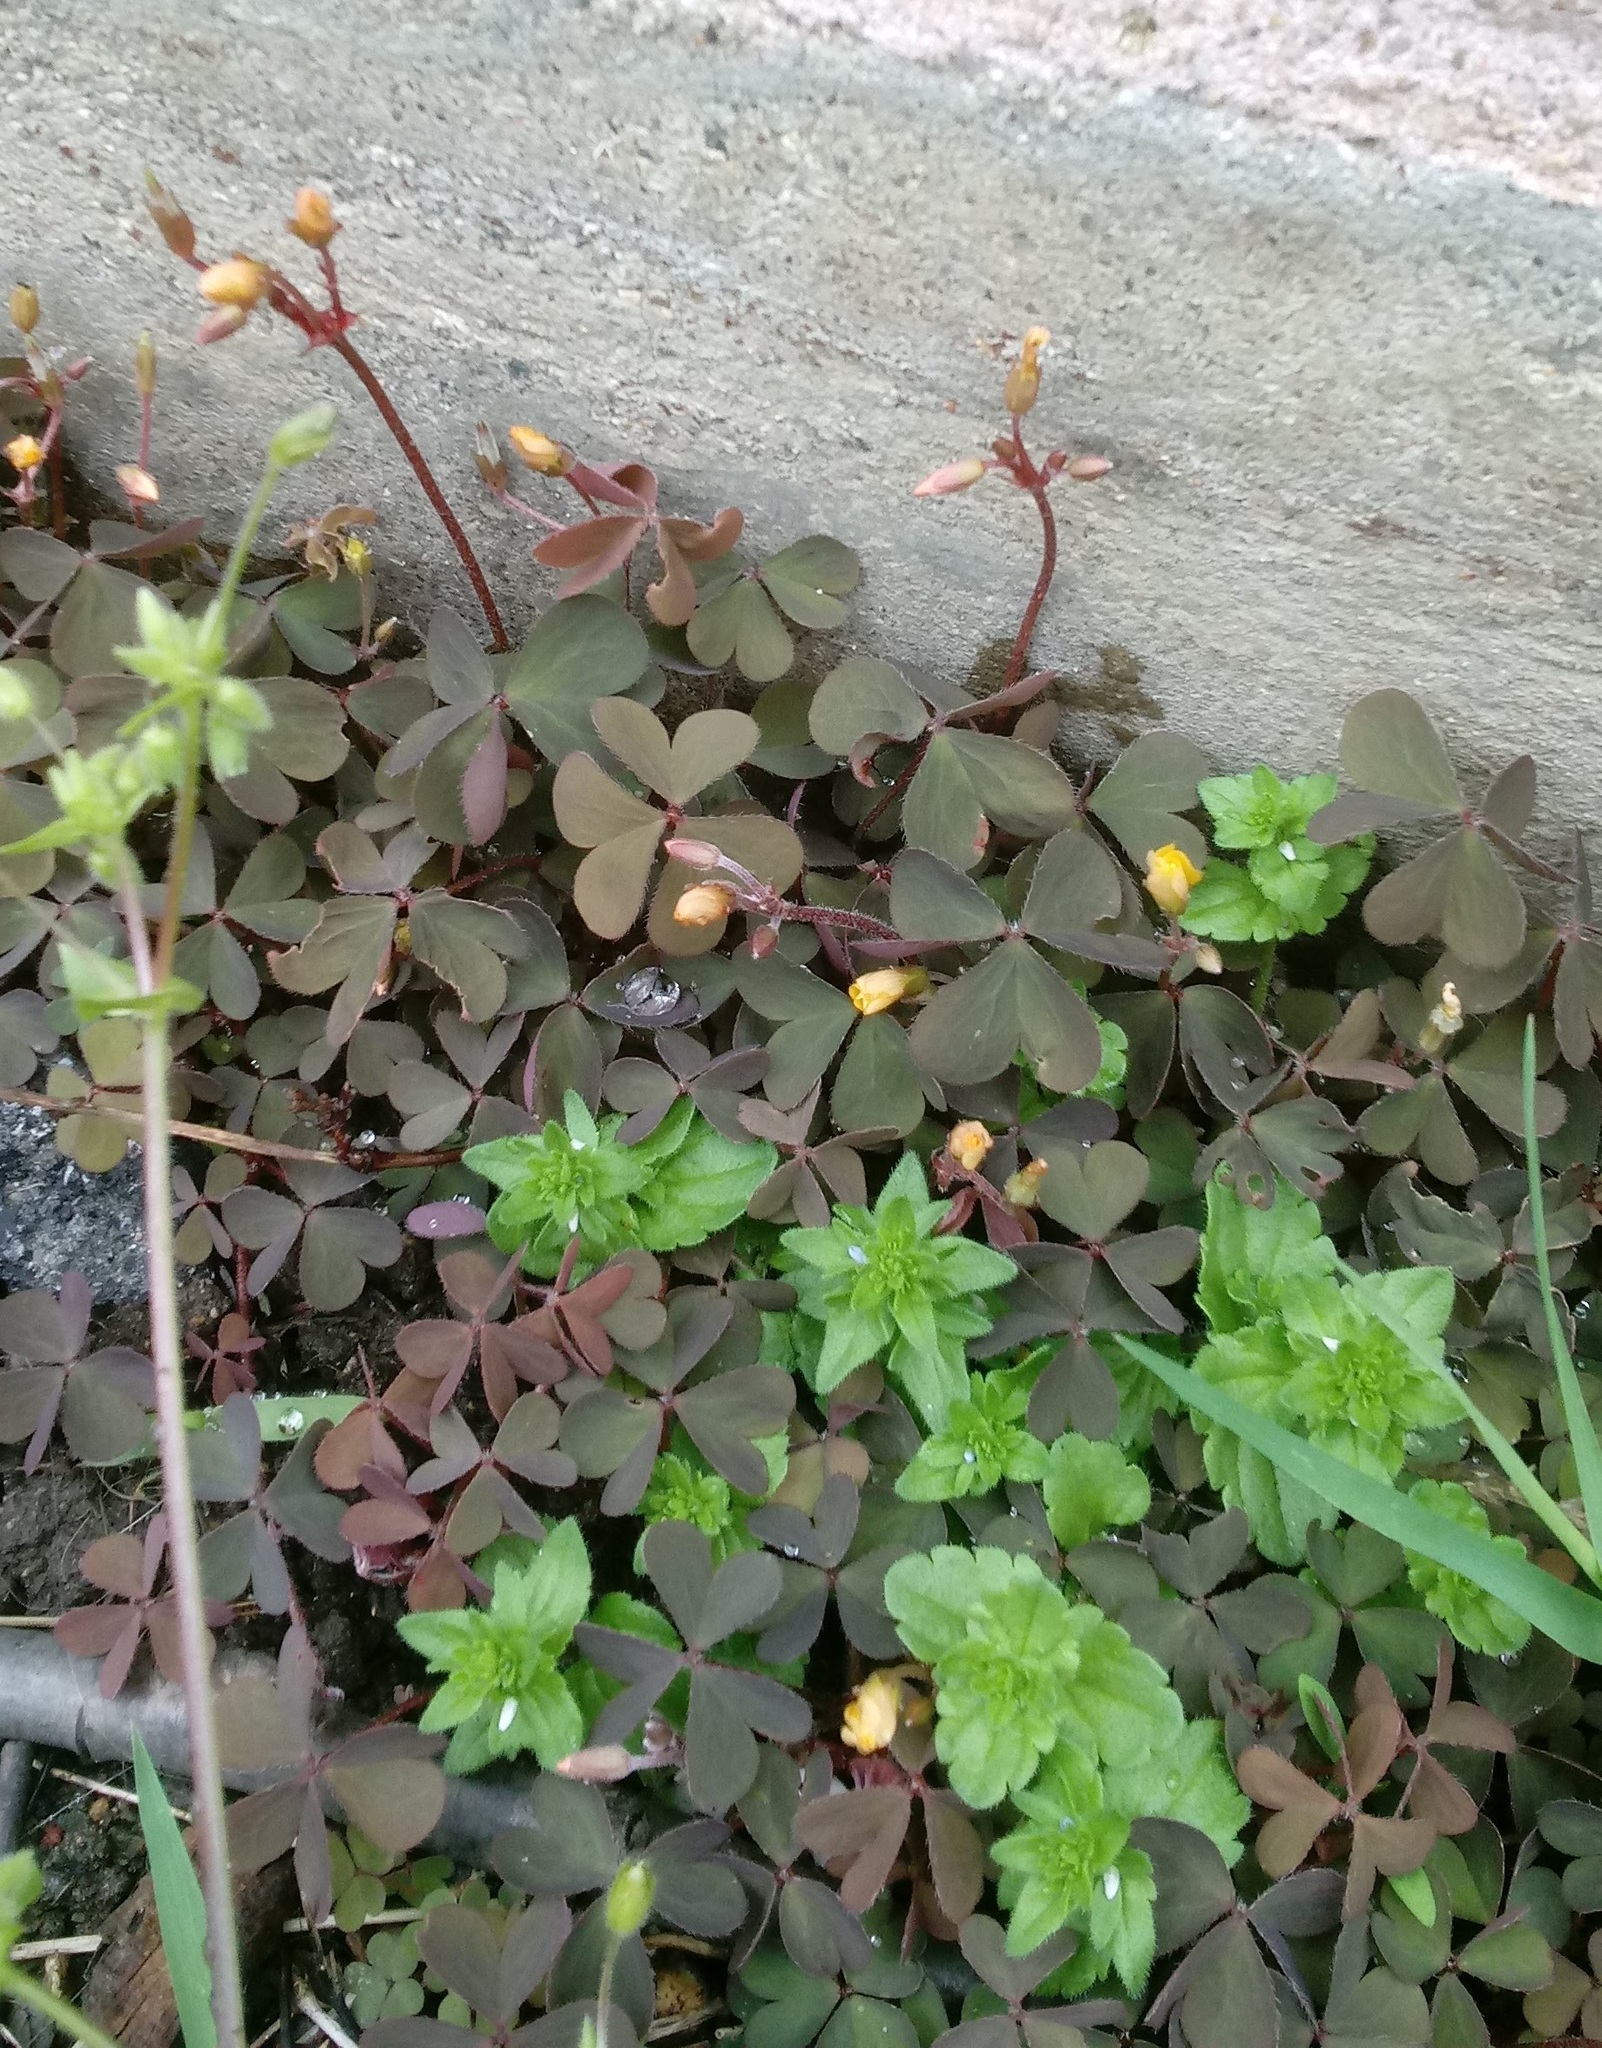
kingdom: Plantae
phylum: Tracheophyta
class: Magnoliopsida
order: Oxalidales
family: Oxalidaceae
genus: Oxalis
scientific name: Oxalis corniculata
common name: Procumbent yellow-sorrel
